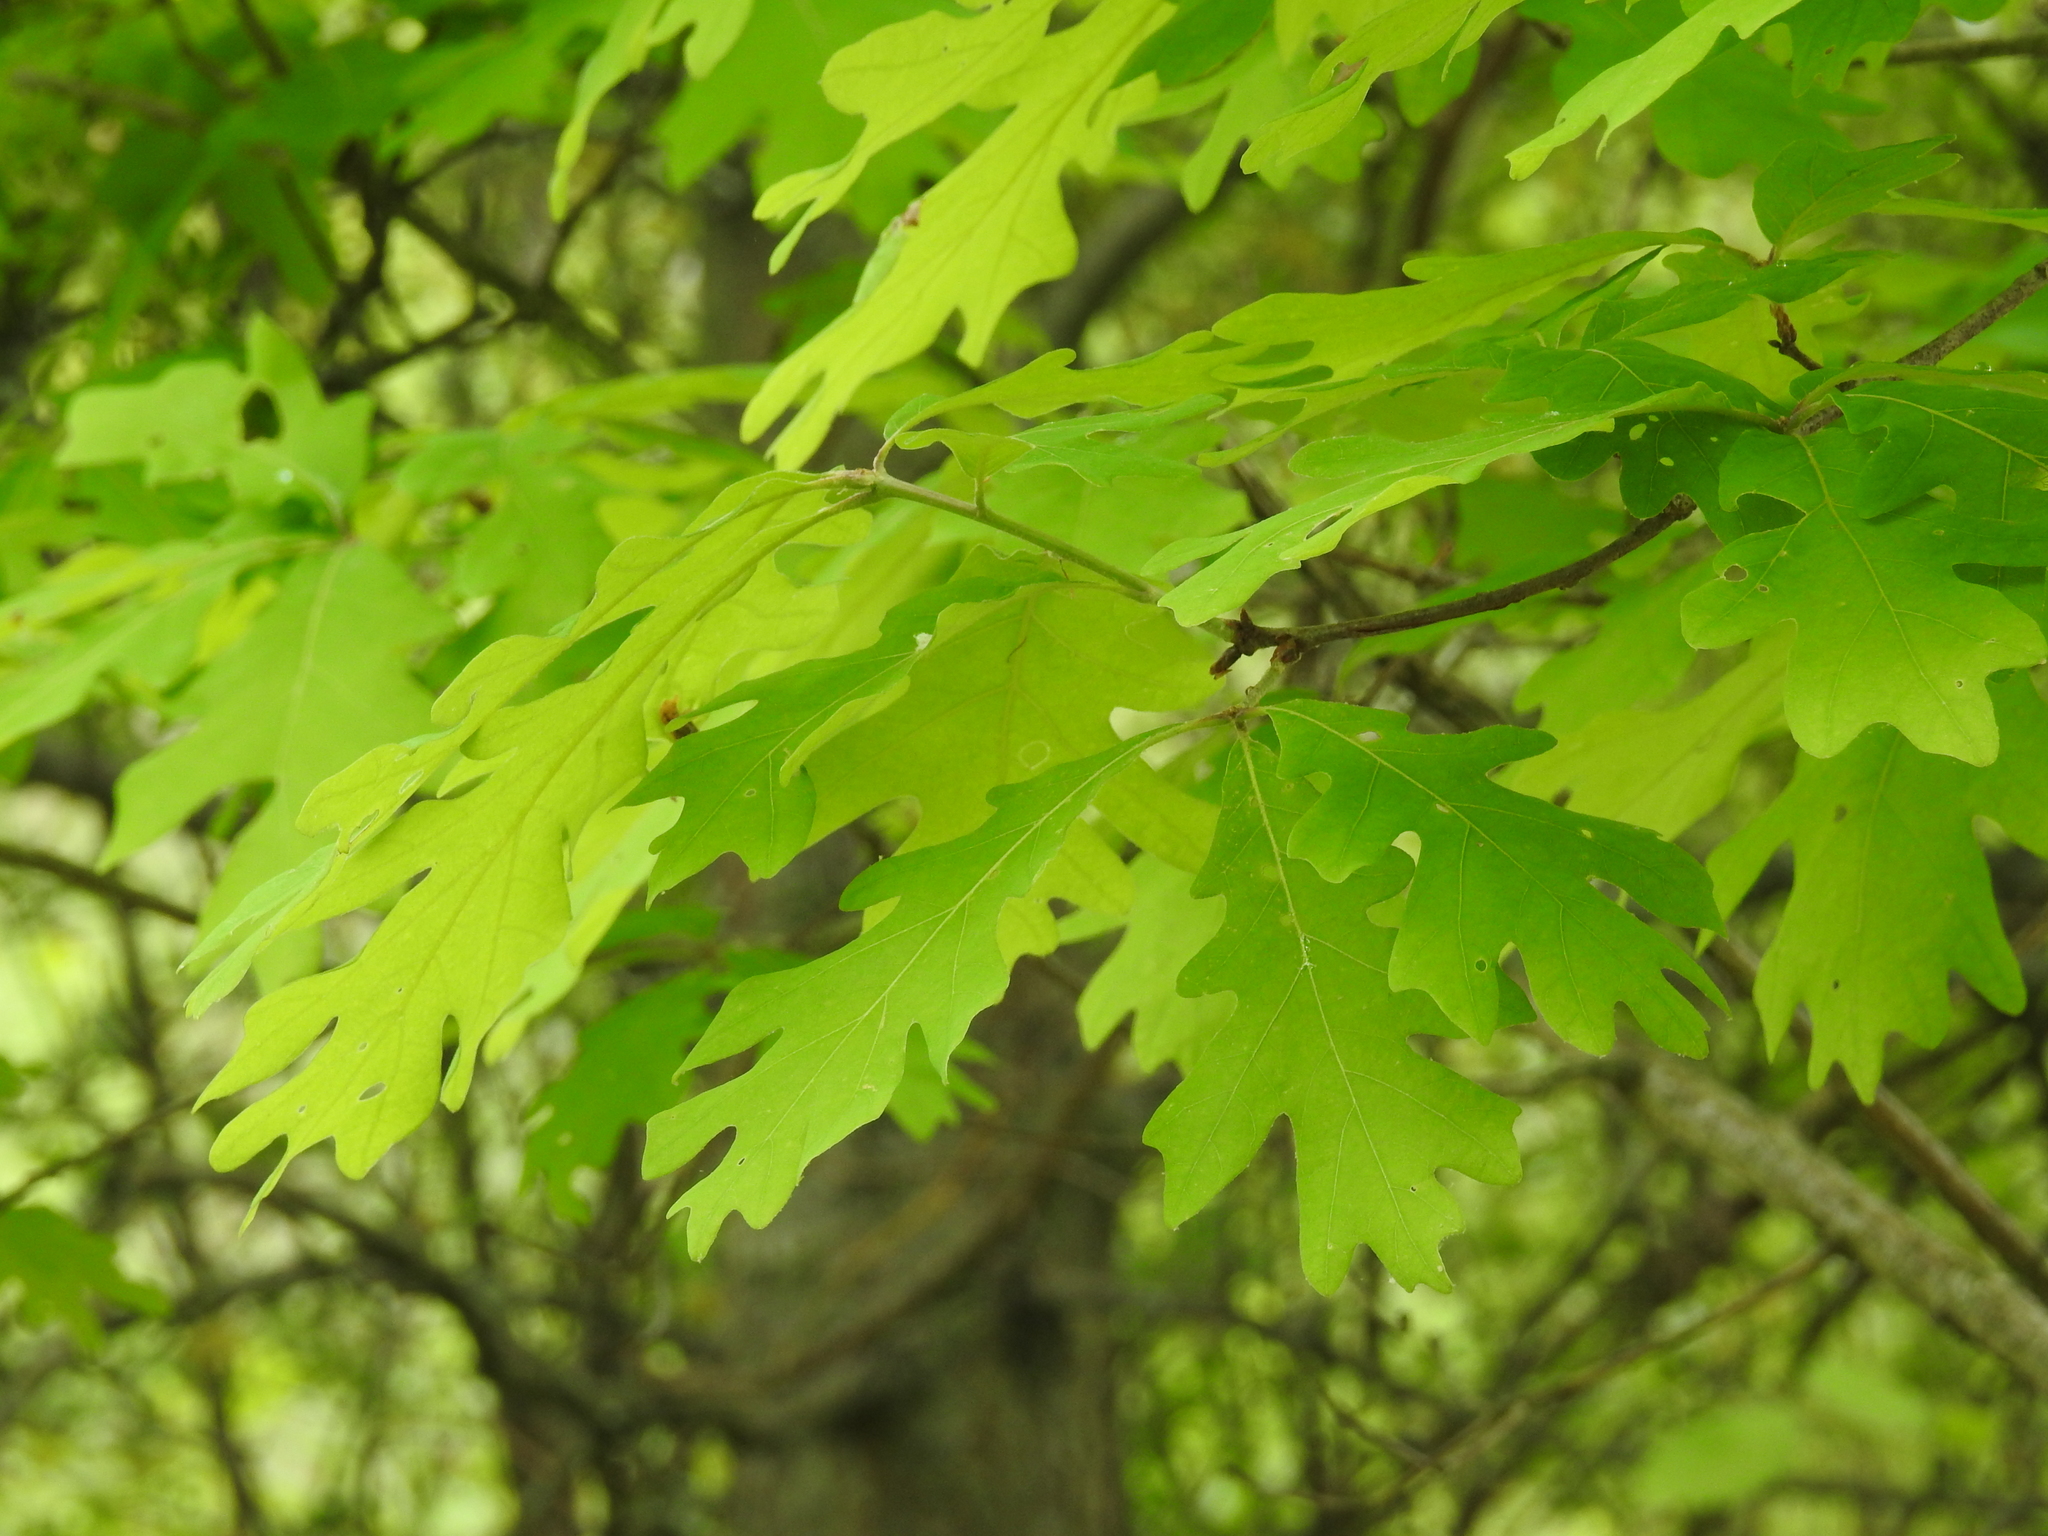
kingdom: Plantae
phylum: Tracheophyta
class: Magnoliopsida
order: Fagales
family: Fagaceae
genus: Quercus
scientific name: Quercus alba
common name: White oak
